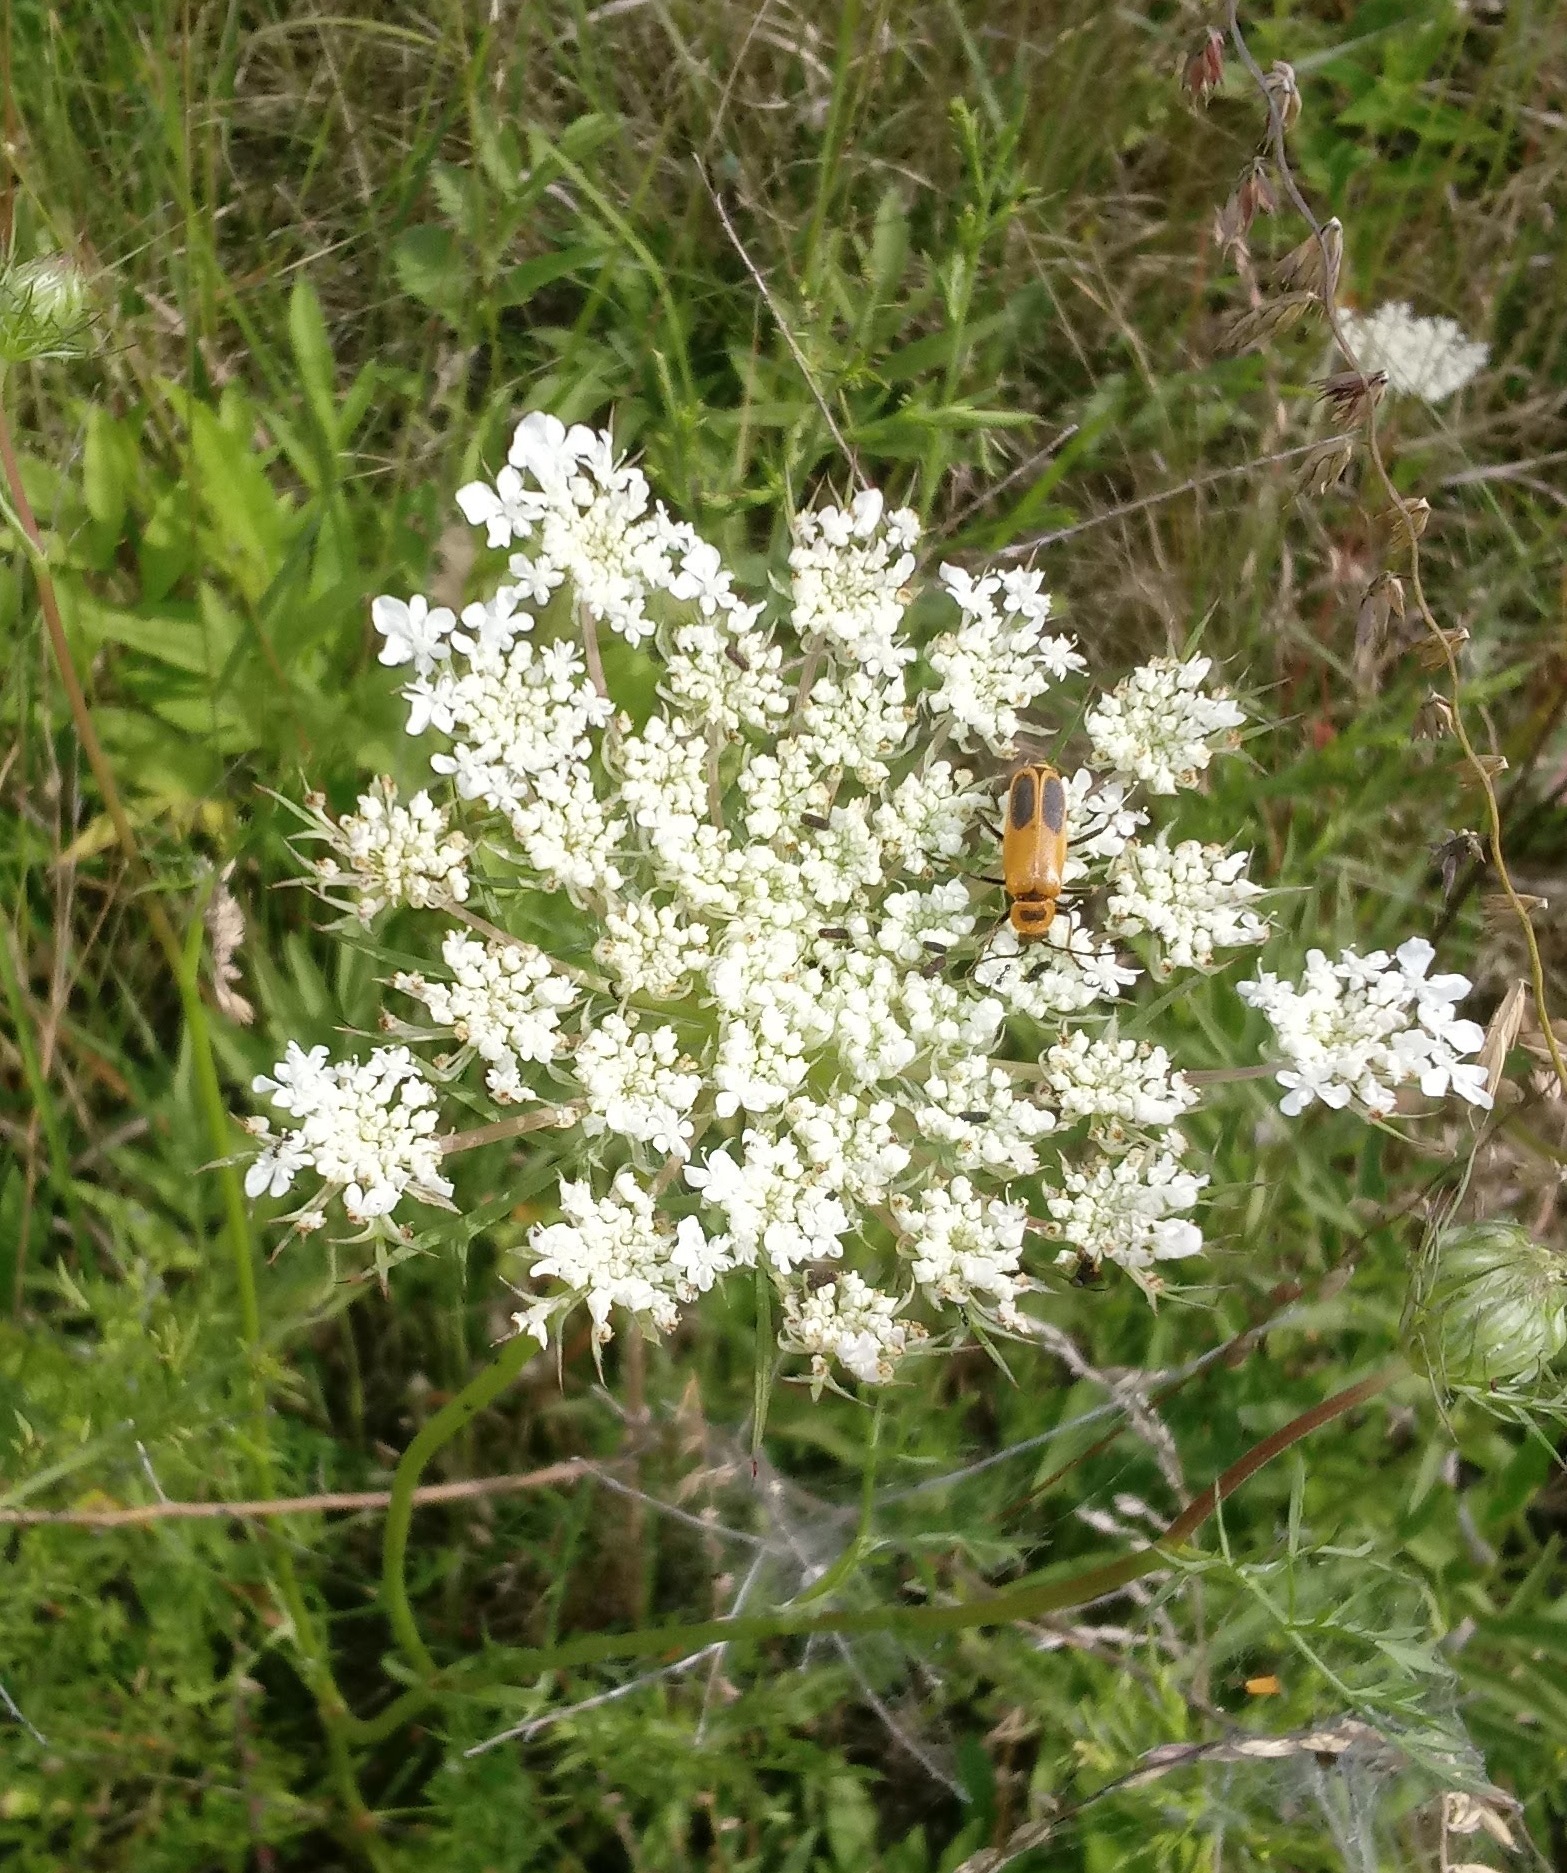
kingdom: Animalia
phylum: Arthropoda
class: Insecta
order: Coleoptera
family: Cantharidae
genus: Chauliognathus
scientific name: Chauliognathus pensylvanicus
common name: Goldenrod soldier beetle
